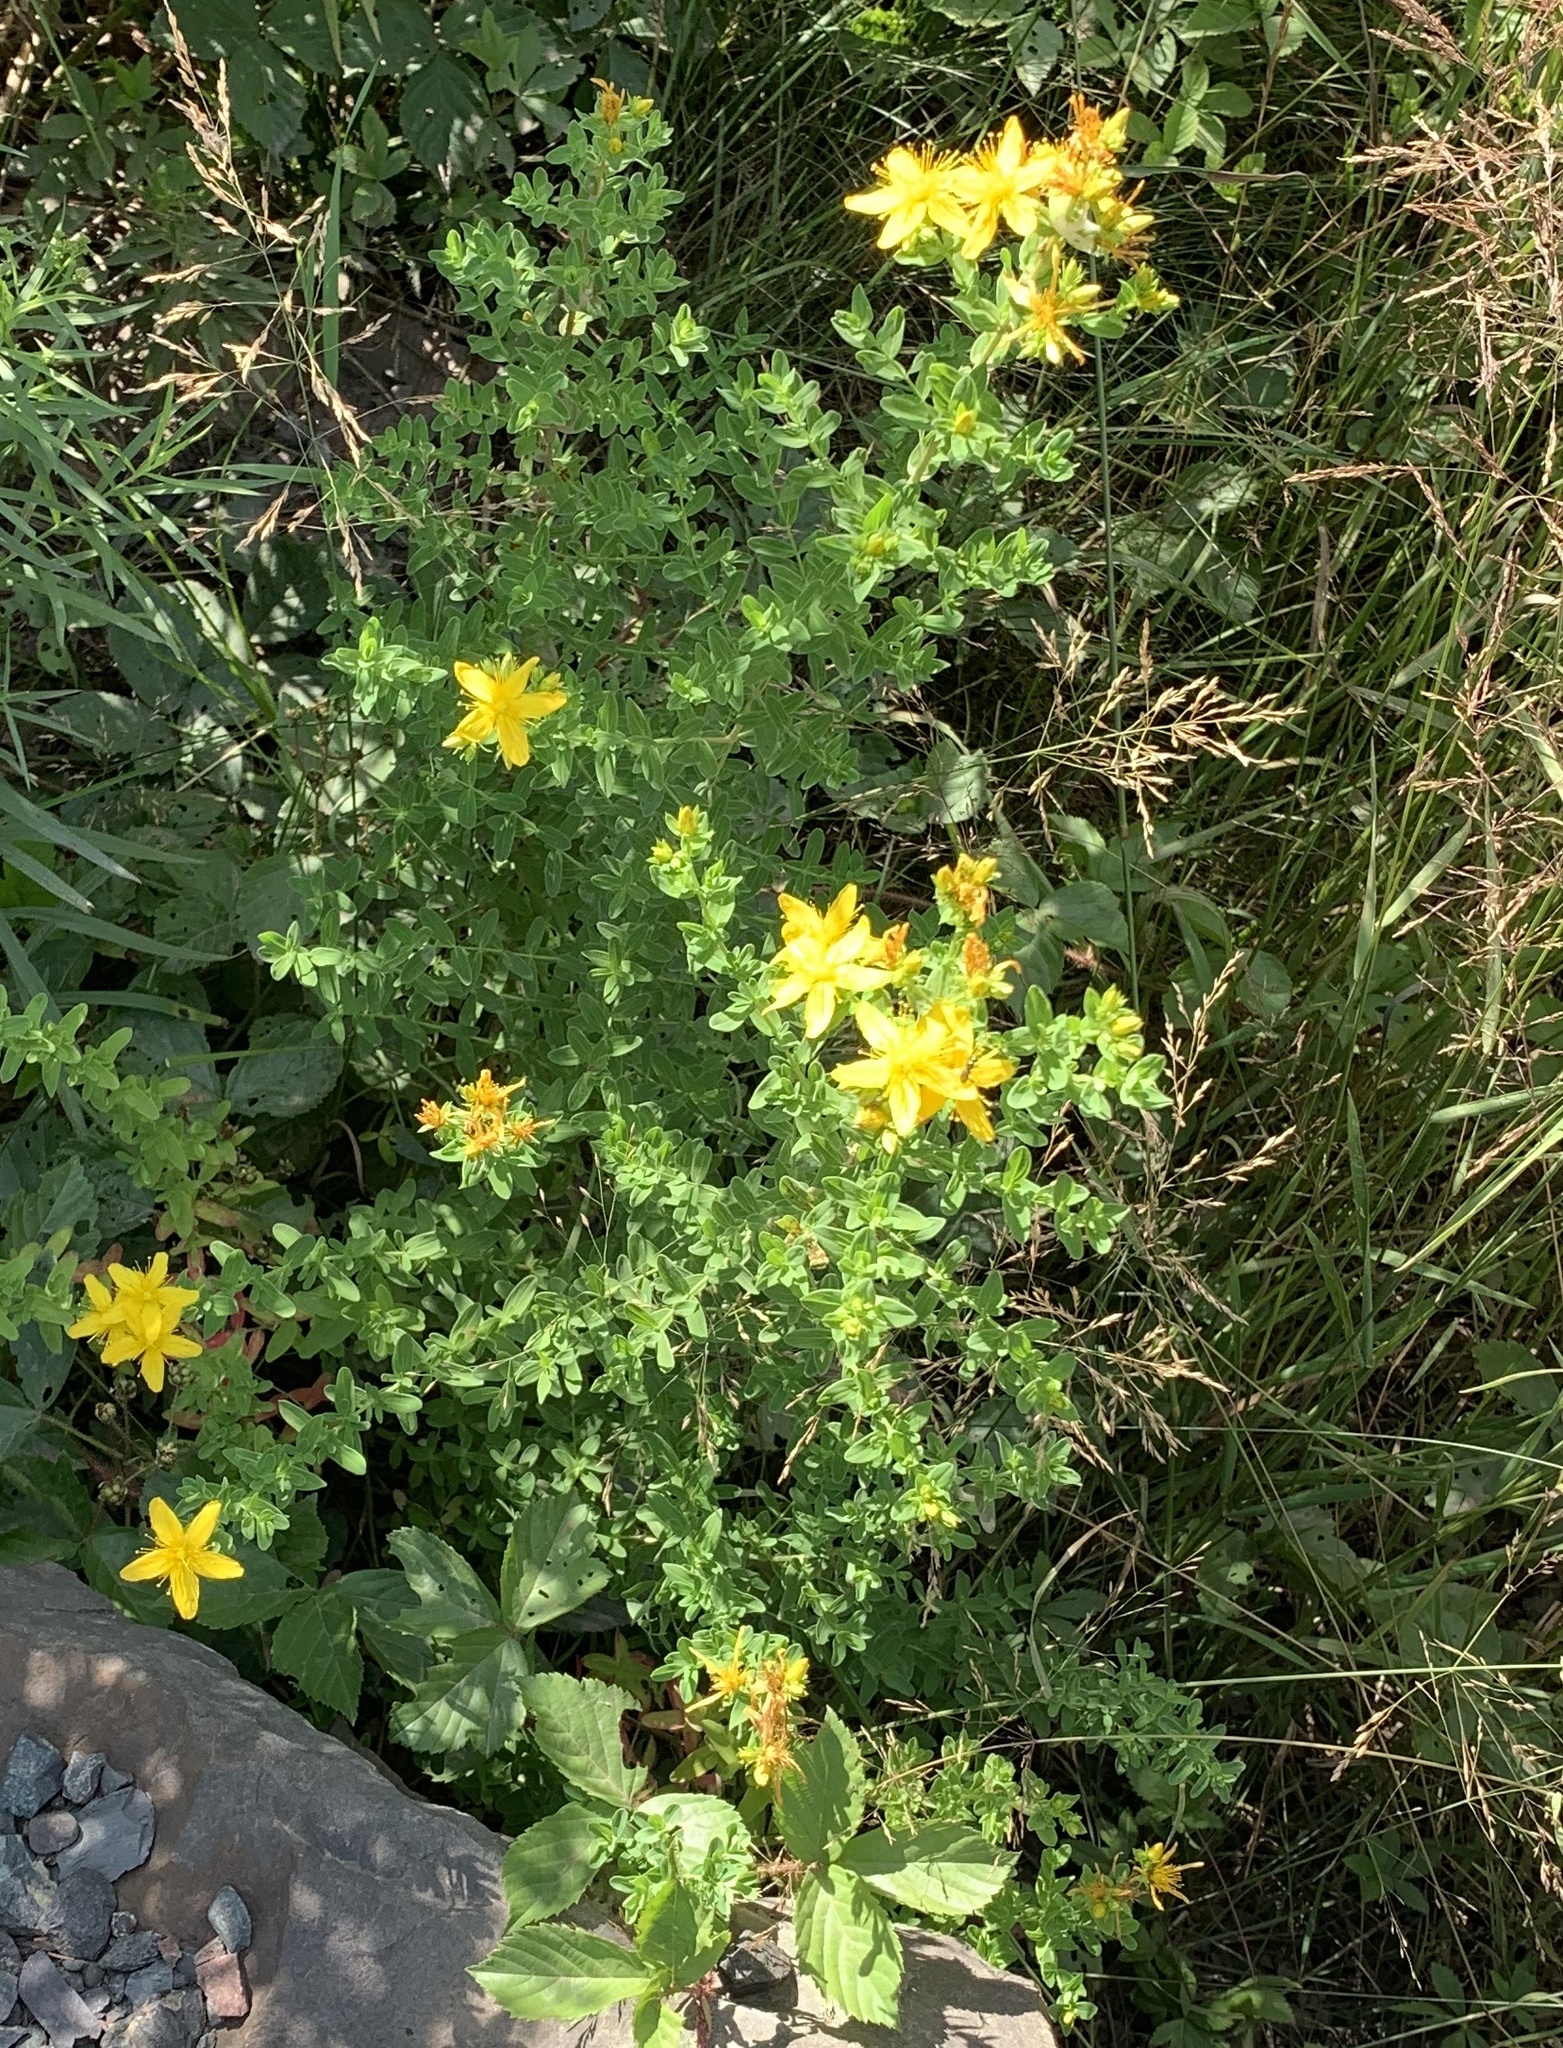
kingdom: Plantae
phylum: Tracheophyta
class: Magnoliopsida
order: Malpighiales
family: Hypericaceae
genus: Hypericum
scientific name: Hypericum perforatum
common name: Common st. johnswort
